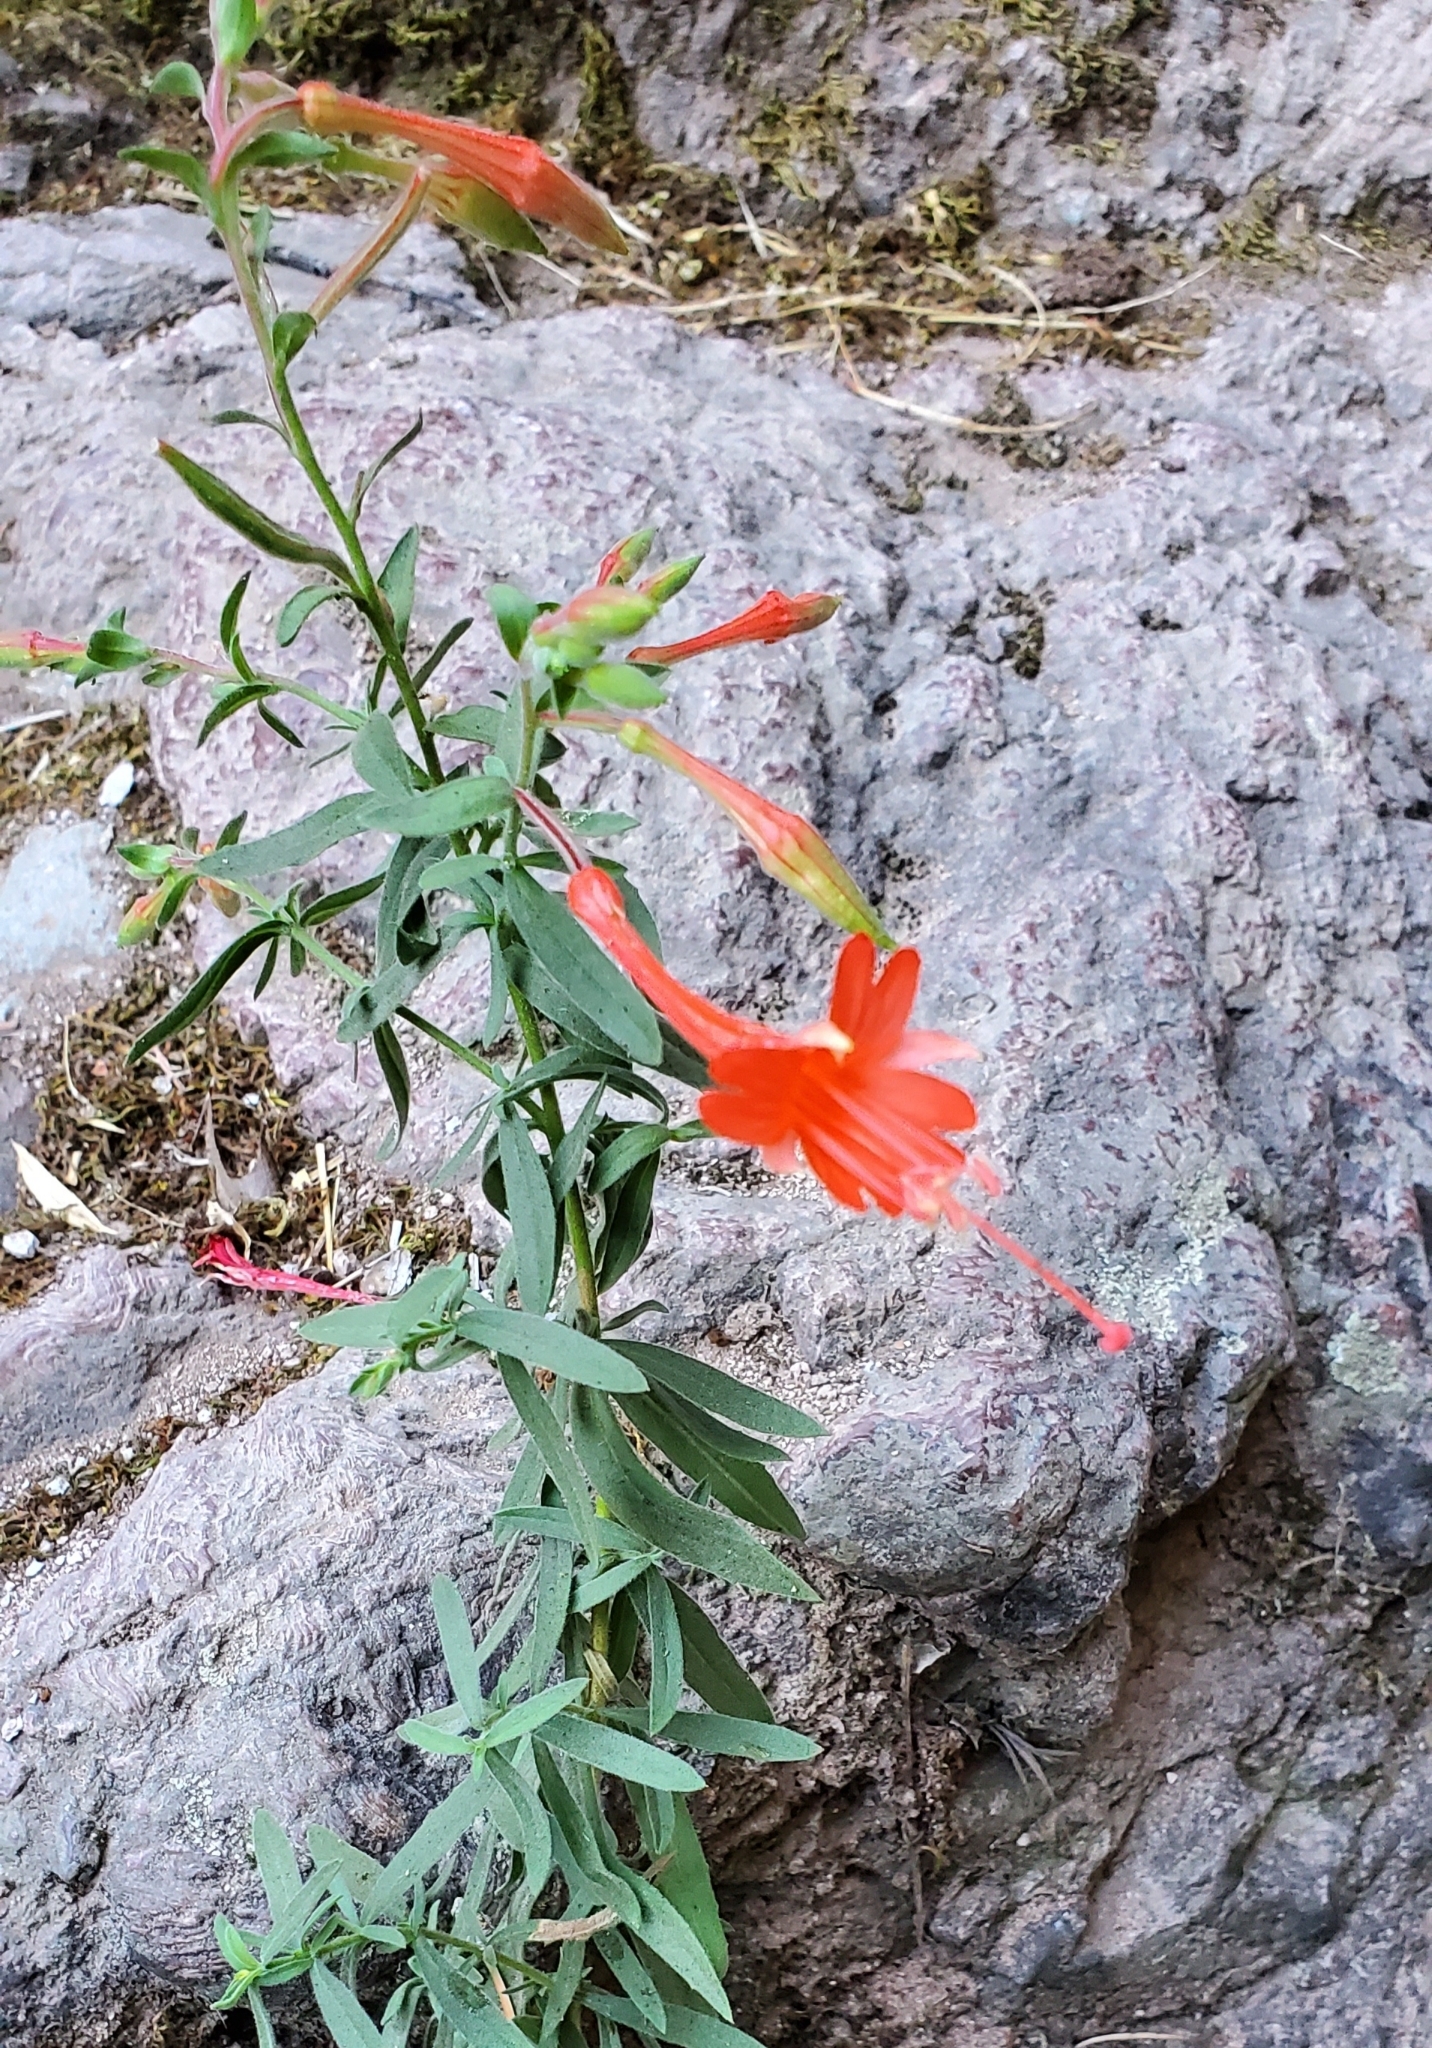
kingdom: Plantae
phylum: Tracheophyta
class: Magnoliopsida
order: Myrtales
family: Onagraceae
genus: Epilobium
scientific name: Epilobium canum
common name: California-fuchsia
